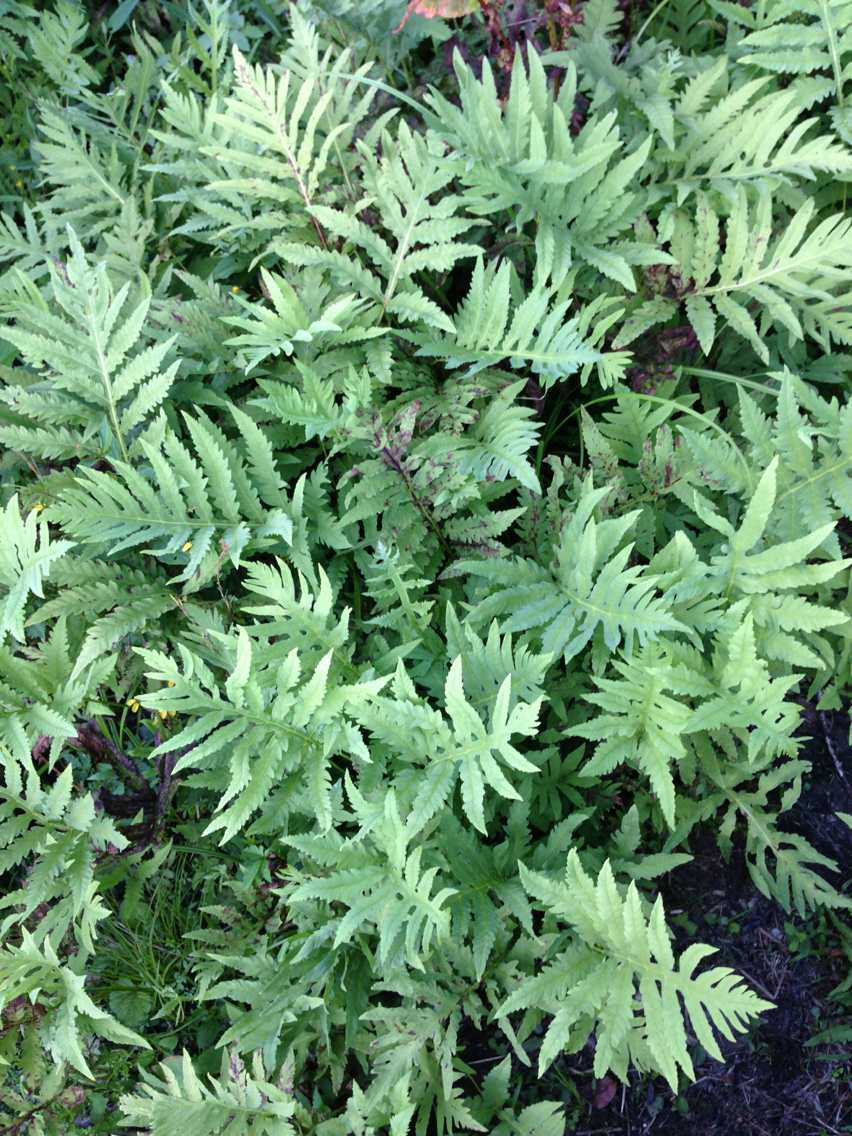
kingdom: Plantae
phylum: Tracheophyta
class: Polypodiopsida
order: Polypodiales
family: Onocleaceae
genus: Onoclea
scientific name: Onoclea sensibilis
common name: Sensitive fern
